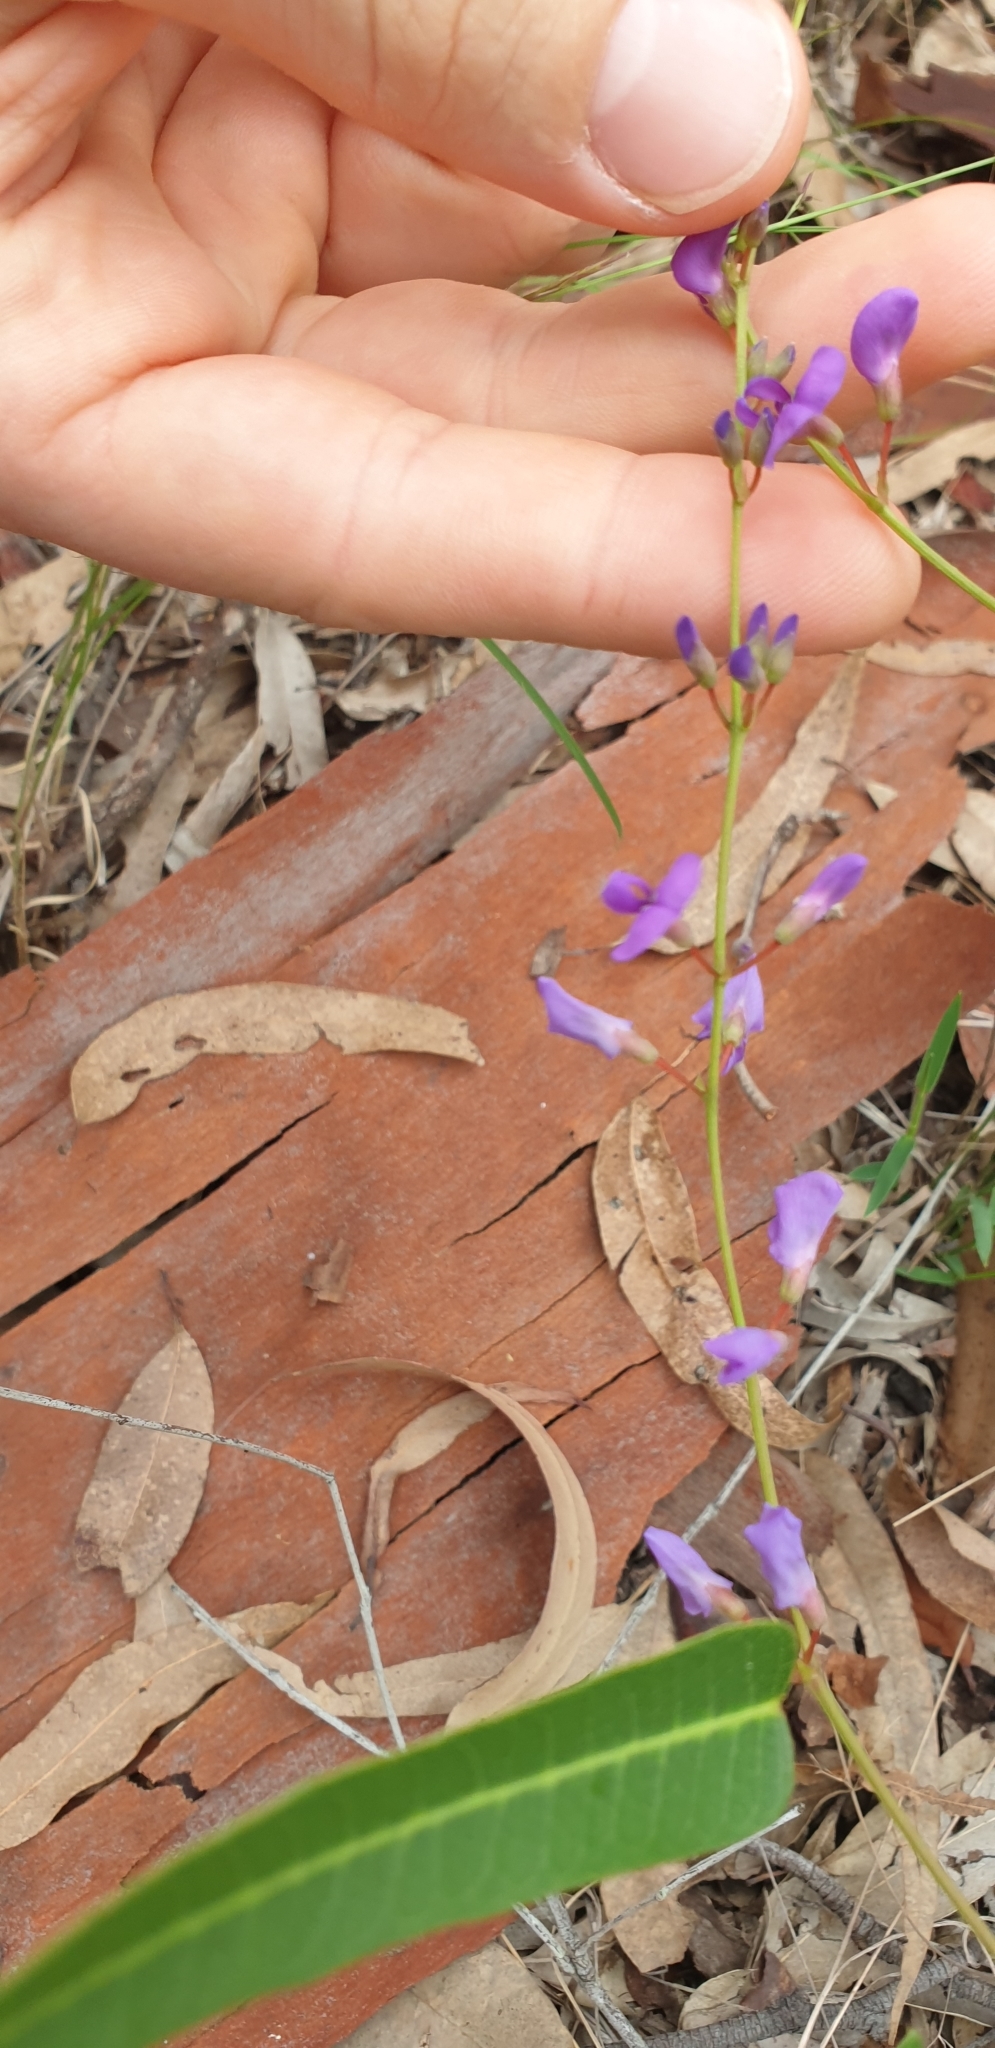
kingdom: Plantae
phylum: Tracheophyta
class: Magnoliopsida
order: Fabales
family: Fabaceae
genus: Hardenbergia
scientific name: Hardenbergia violacea
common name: Coral-pea
